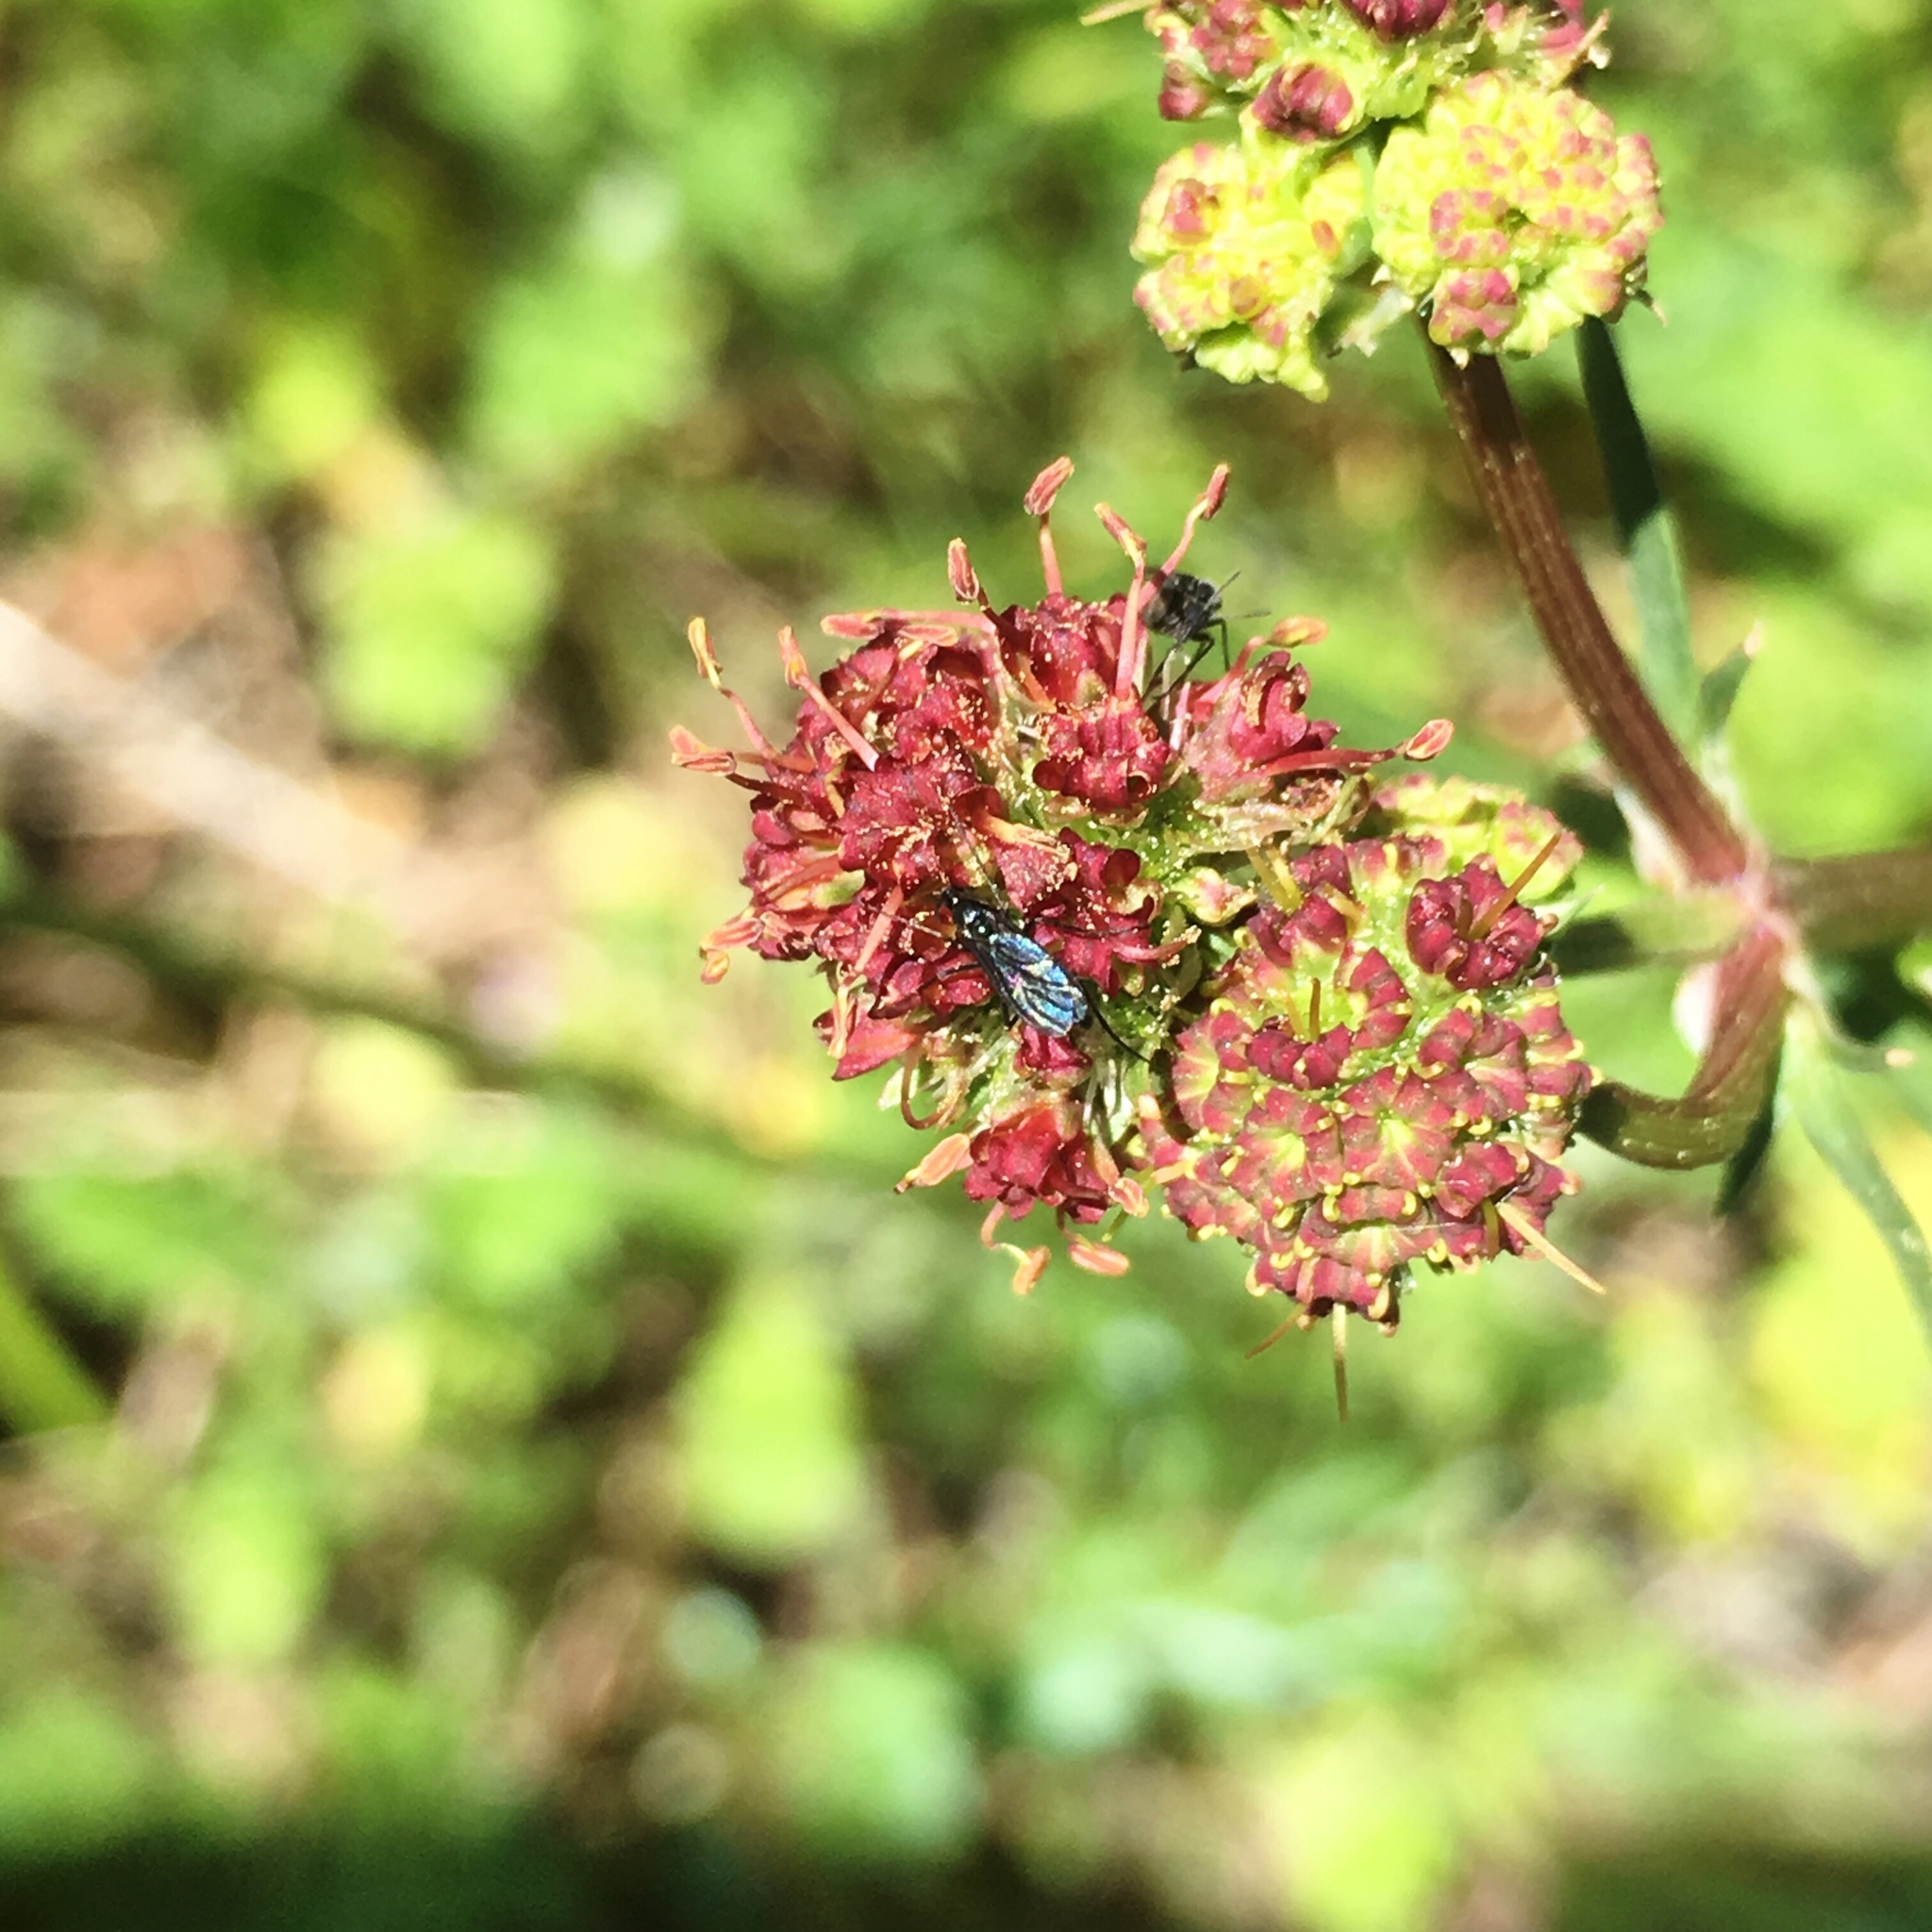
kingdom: Plantae
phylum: Tracheophyta
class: Magnoliopsida
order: Apiales
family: Apiaceae
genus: Sanicula
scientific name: Sanicula bipinnatifida
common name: Shoe-buttons
